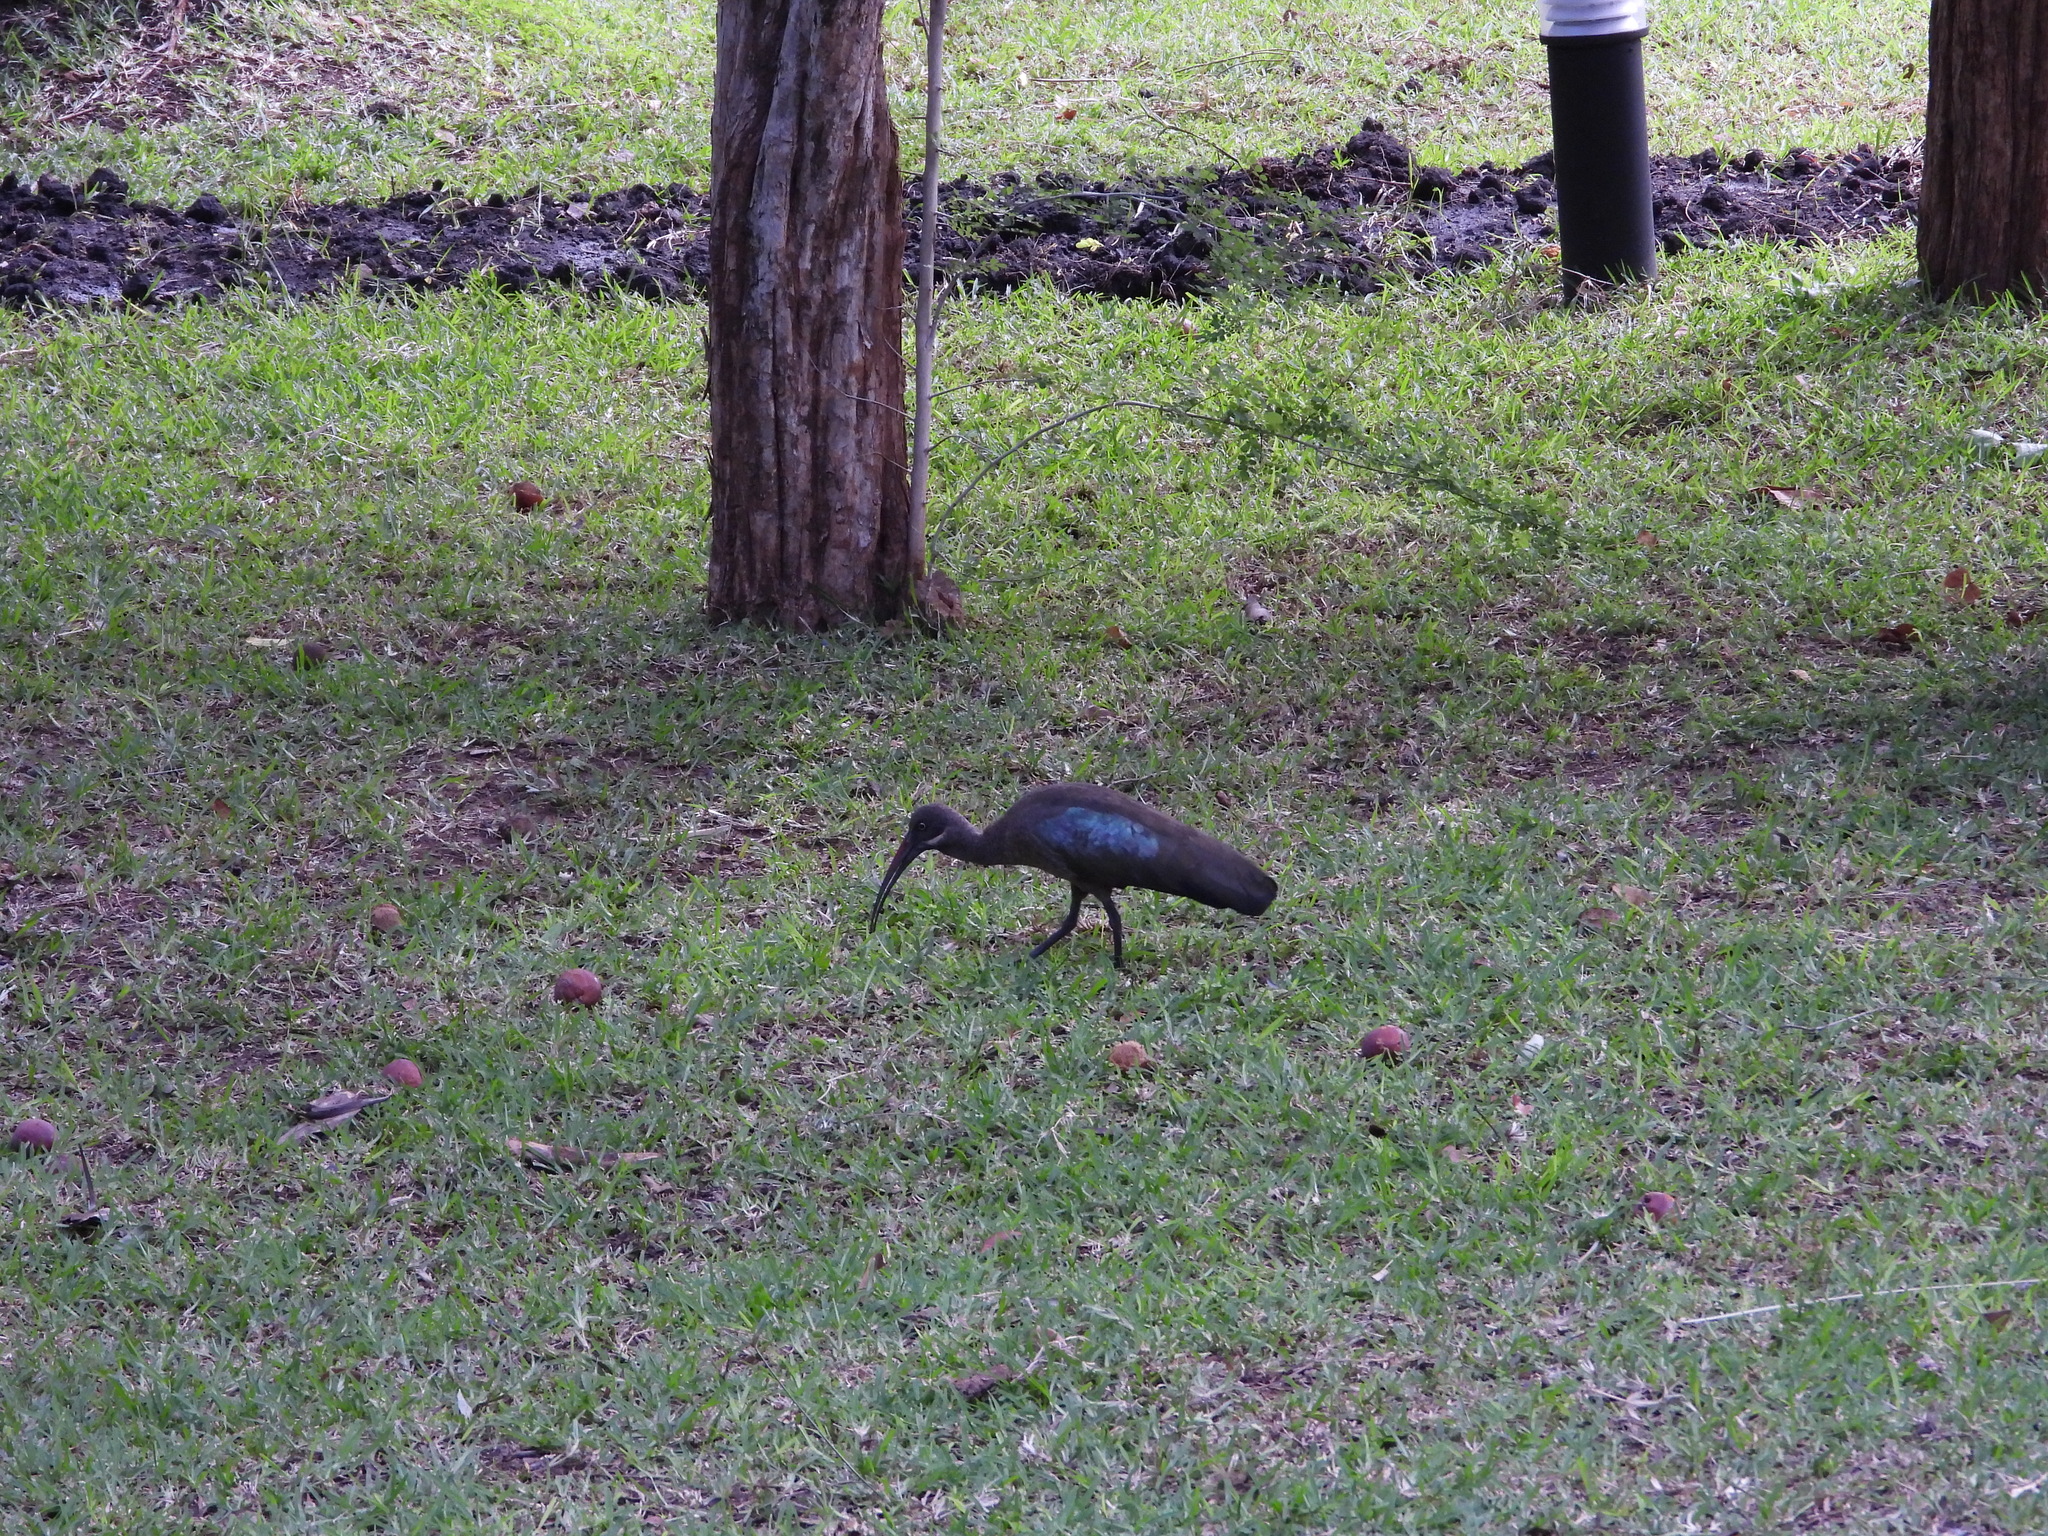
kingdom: Animalia
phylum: Chordata
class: Aves
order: Pelecaniformes
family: Threskiornithidae
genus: Bostrychia
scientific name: Bostrychia hagedash
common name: Hadada ibis
